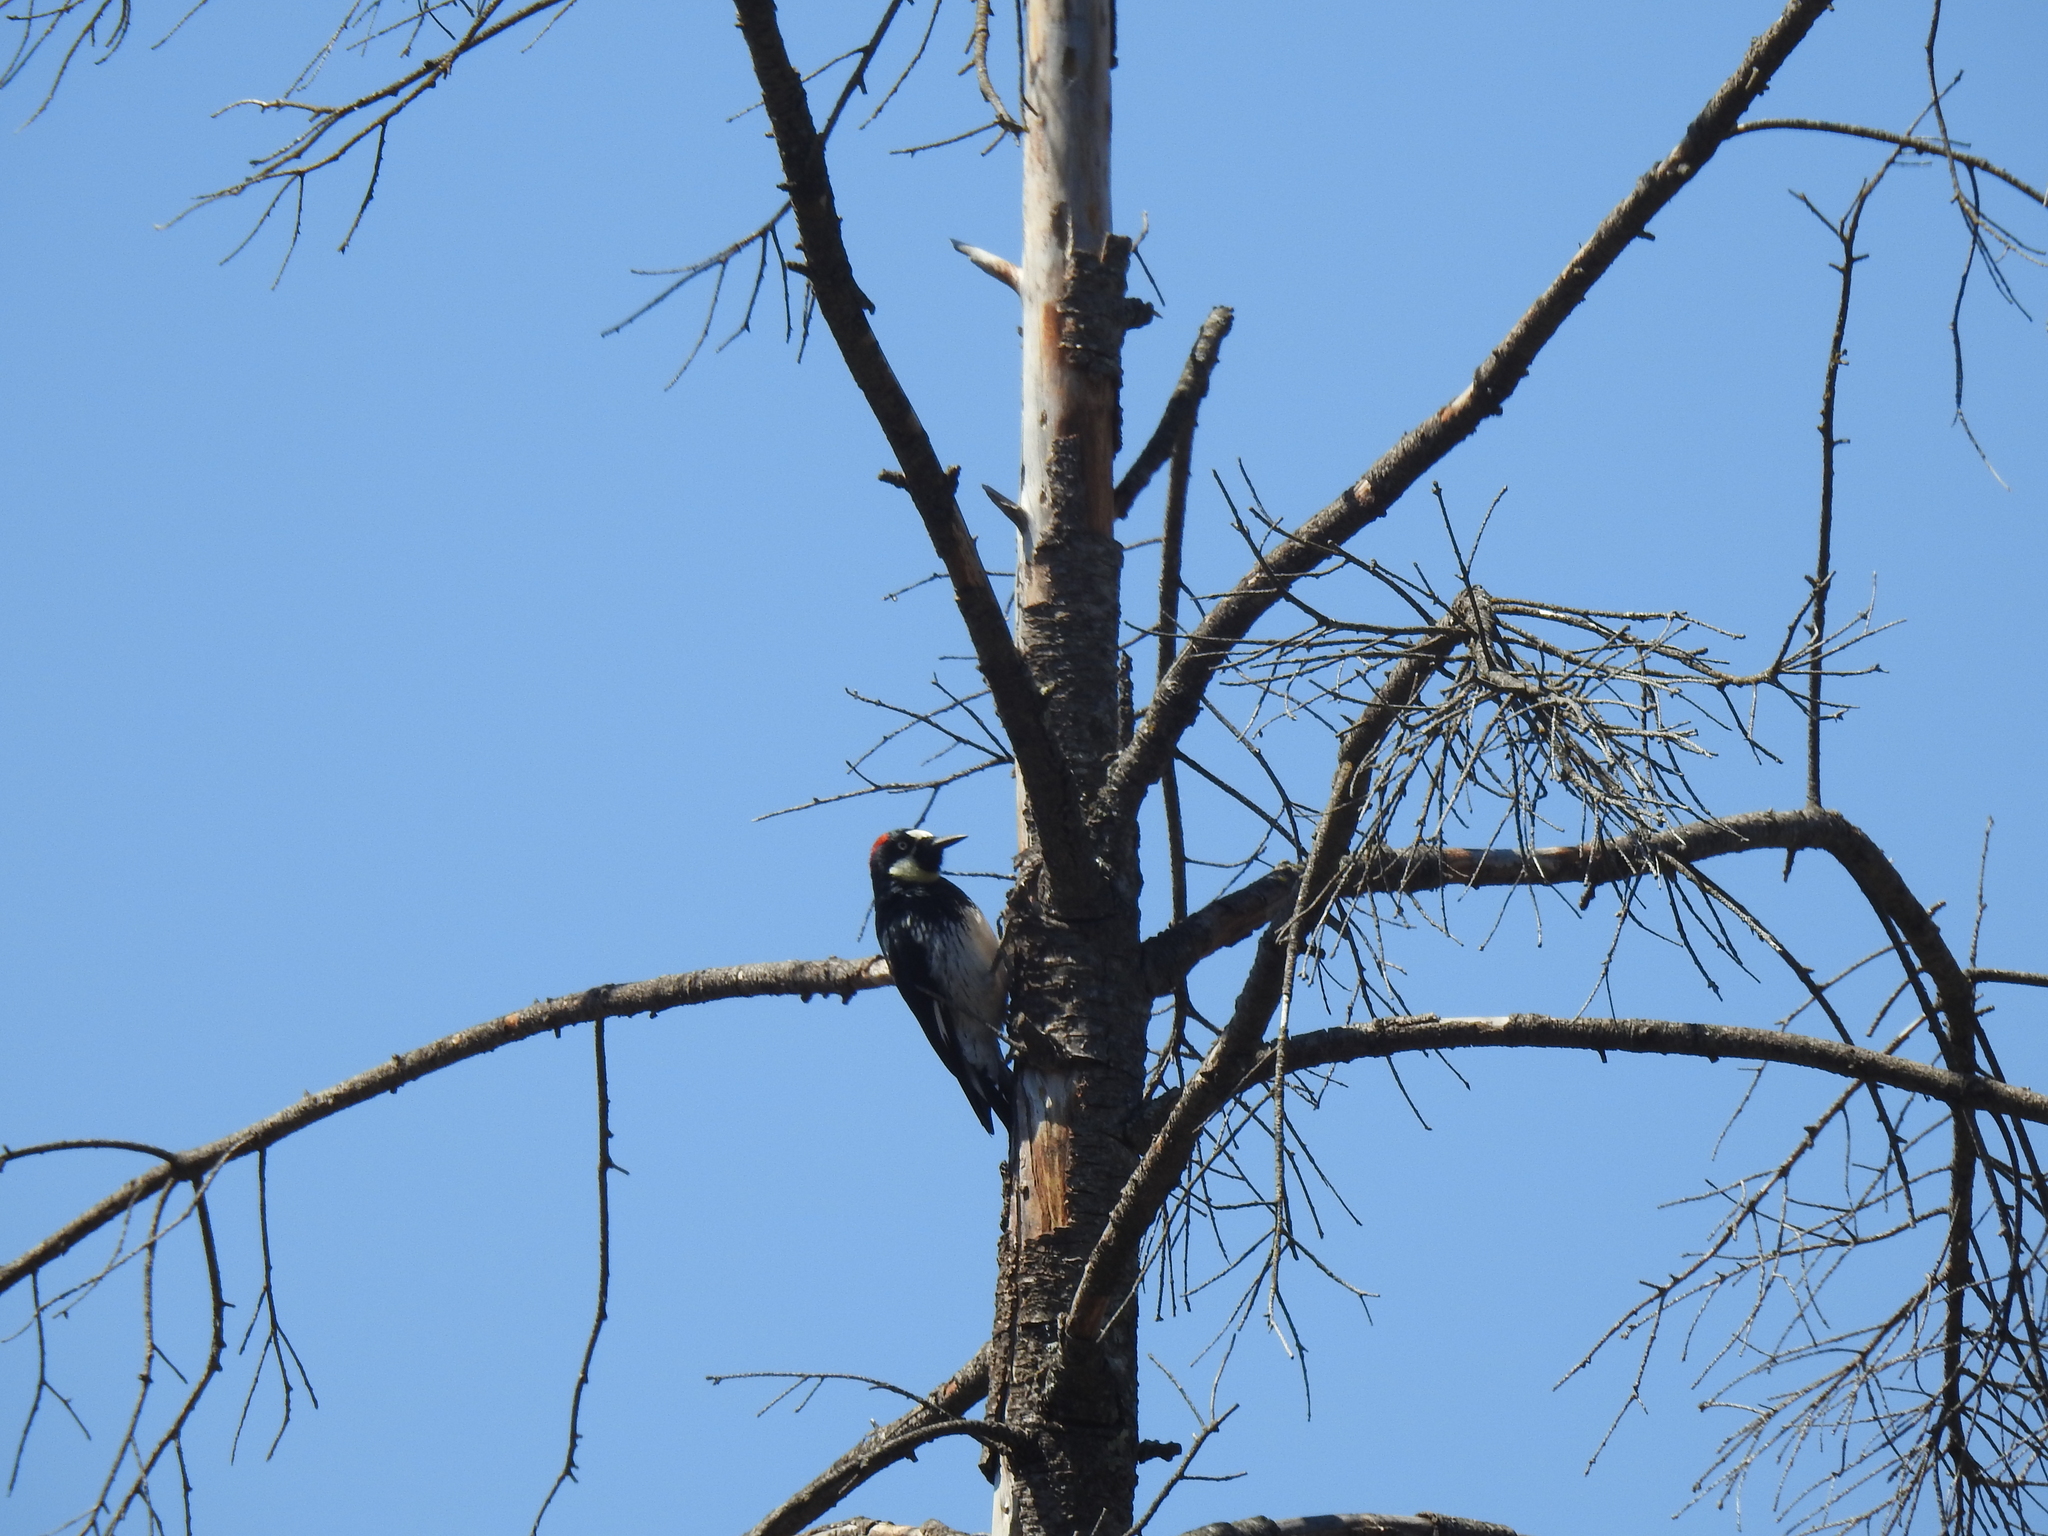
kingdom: Animalia
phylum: Chordata
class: Aves
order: Piciformes
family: Picidae
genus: Melanerpes
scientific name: Melanerpes formicivorus
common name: Acorn woodpecker
